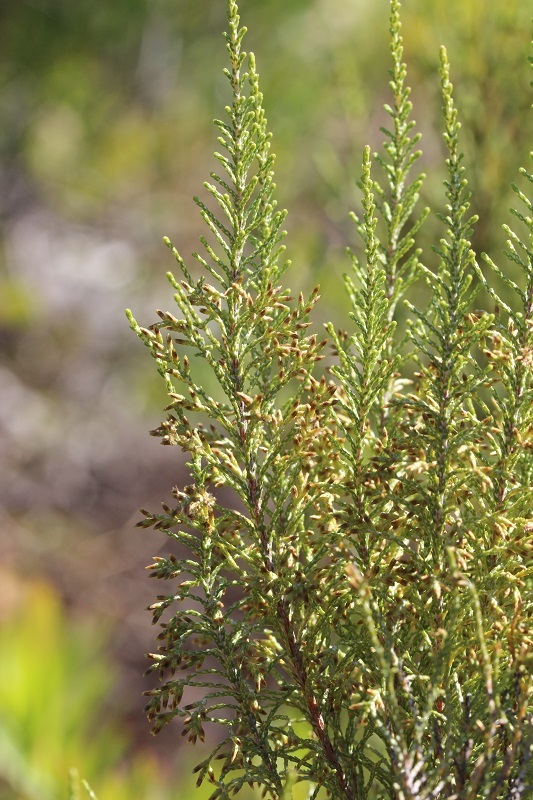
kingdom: Plantae
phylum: Tracheophyta
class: Magnoliopsida
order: Asterales
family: Asteraceae
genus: Dicerothamnus
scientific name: Dicerothamnus rhinocerotis
